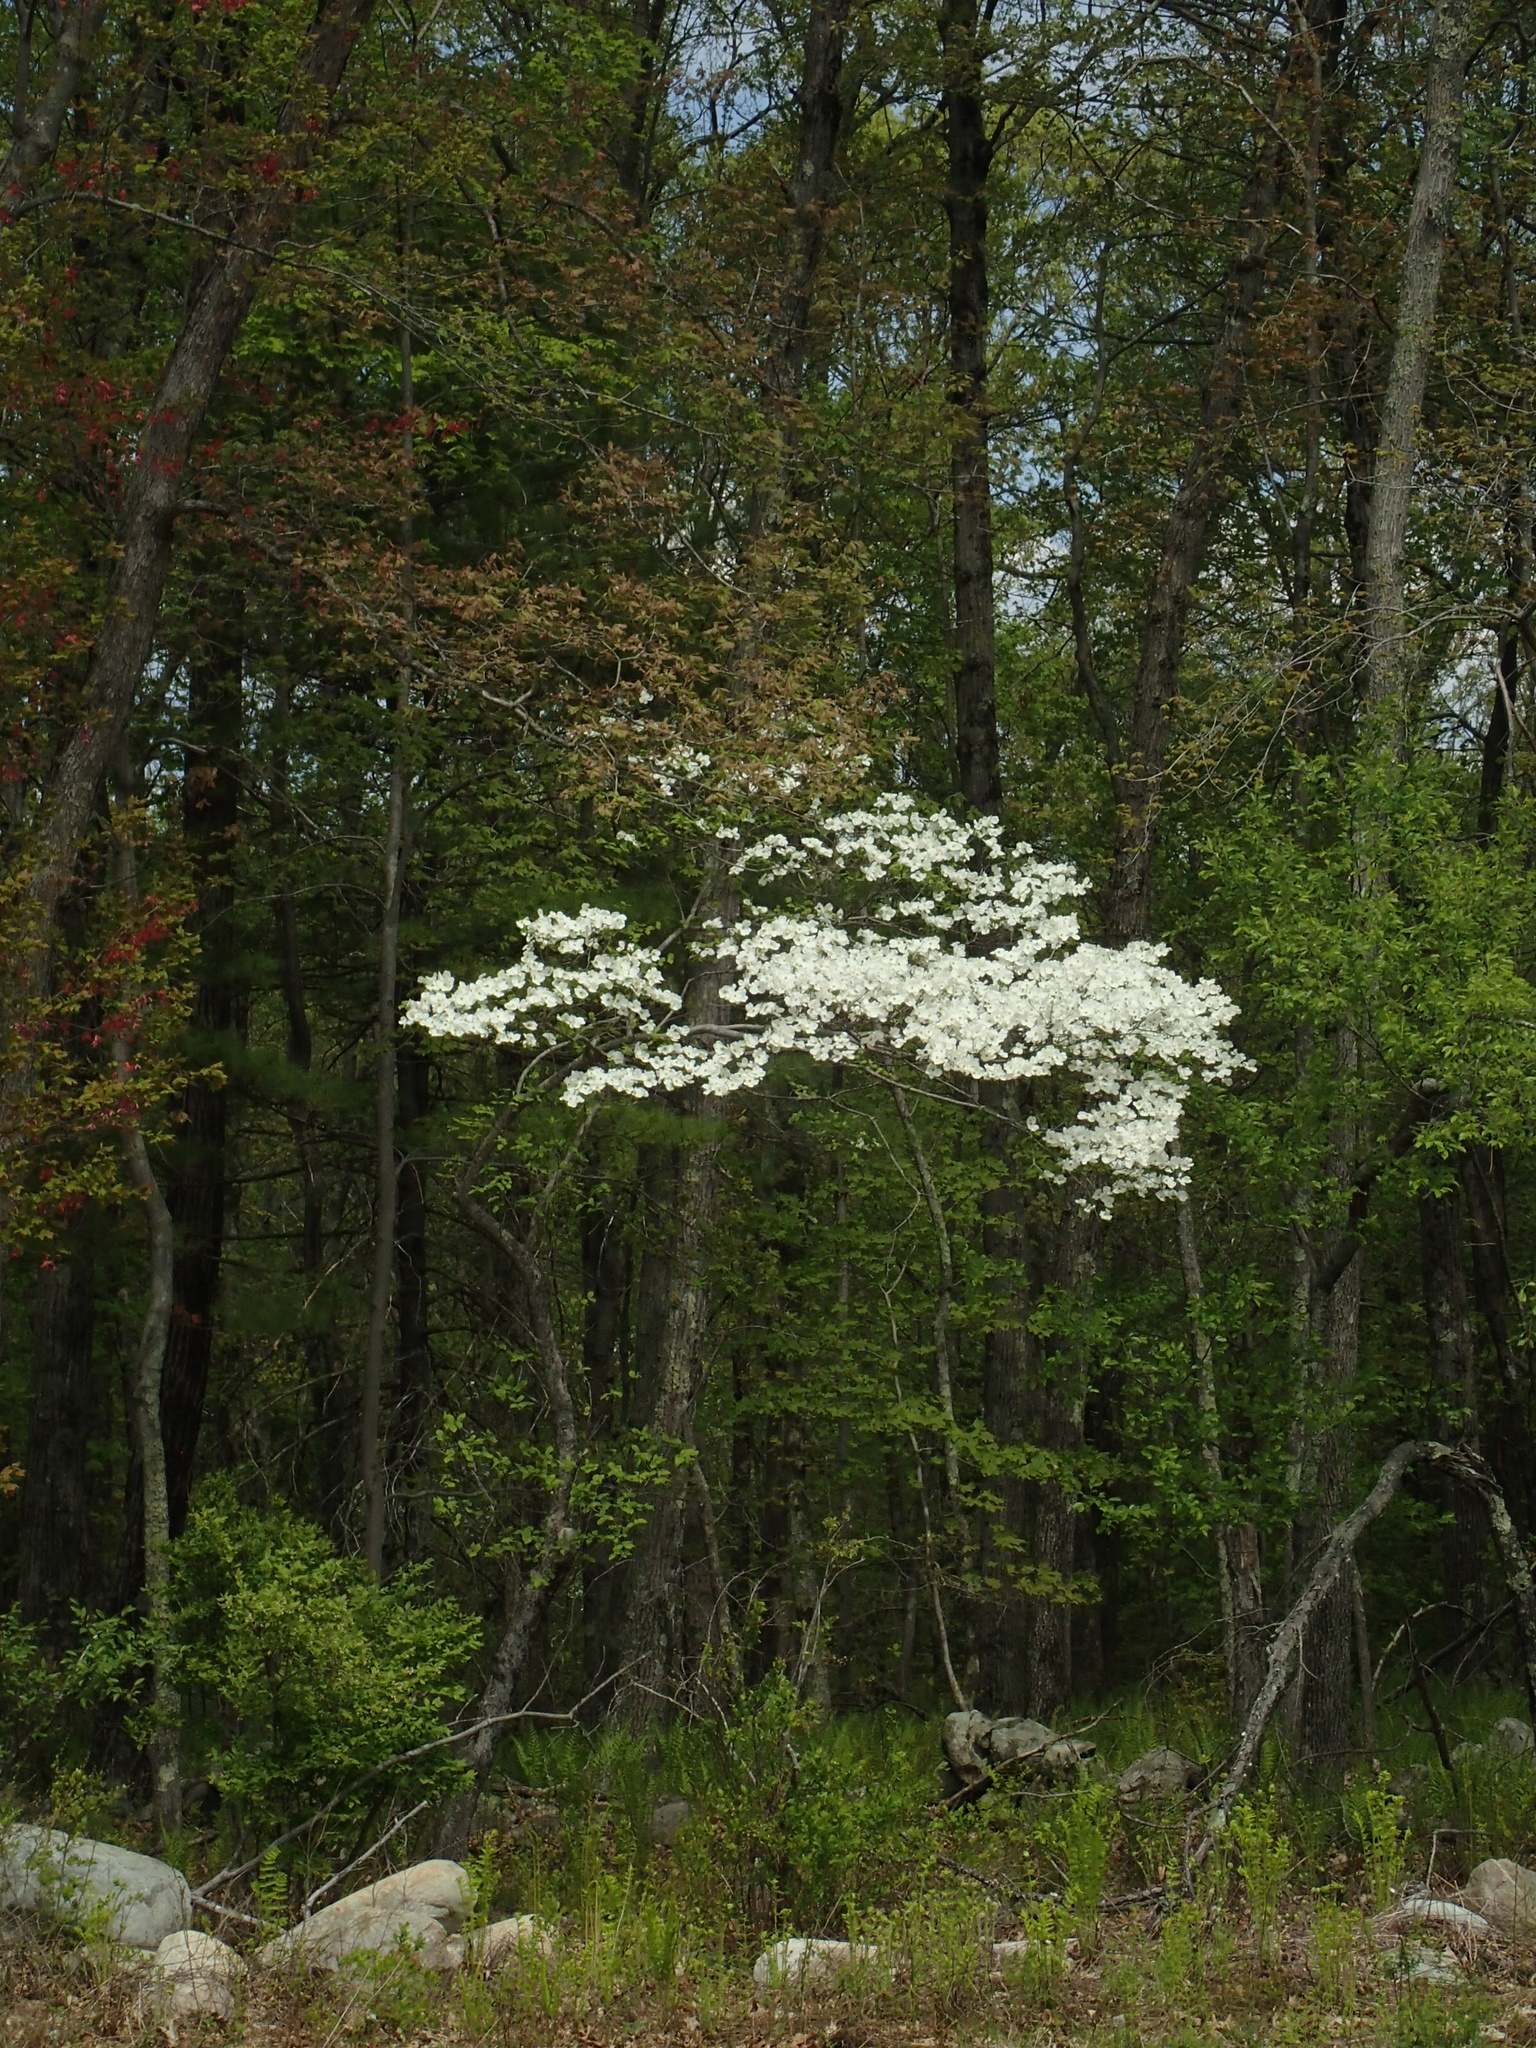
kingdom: Plantae
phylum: Tracheophyta
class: Magnoliopsida
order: Cornales
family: Cornaceae
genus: Cornus
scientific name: Cornus florida
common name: Flowering dogwood
